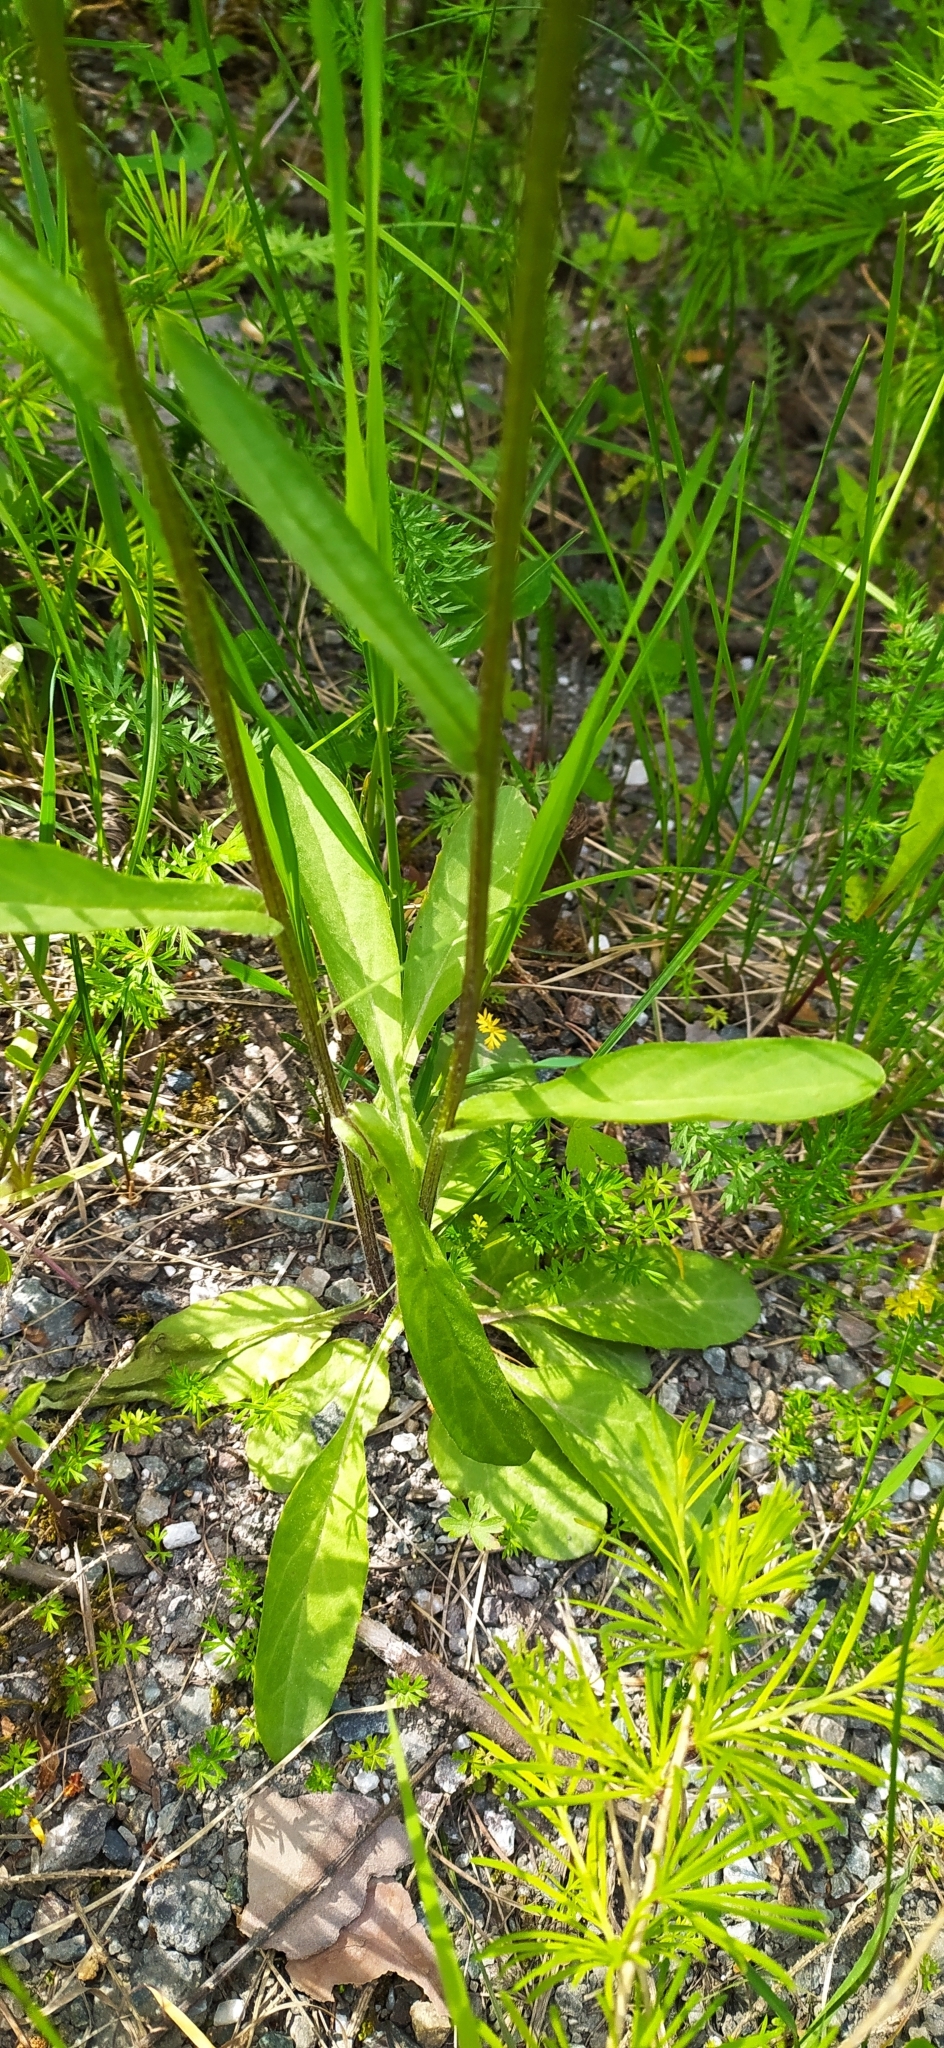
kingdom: Plantae
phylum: Tracheophyta
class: Magnoliopsida
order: Asterales
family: Asteraceae
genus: Tephroseris
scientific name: Tephroseris integrifolia
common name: Field fleawort
